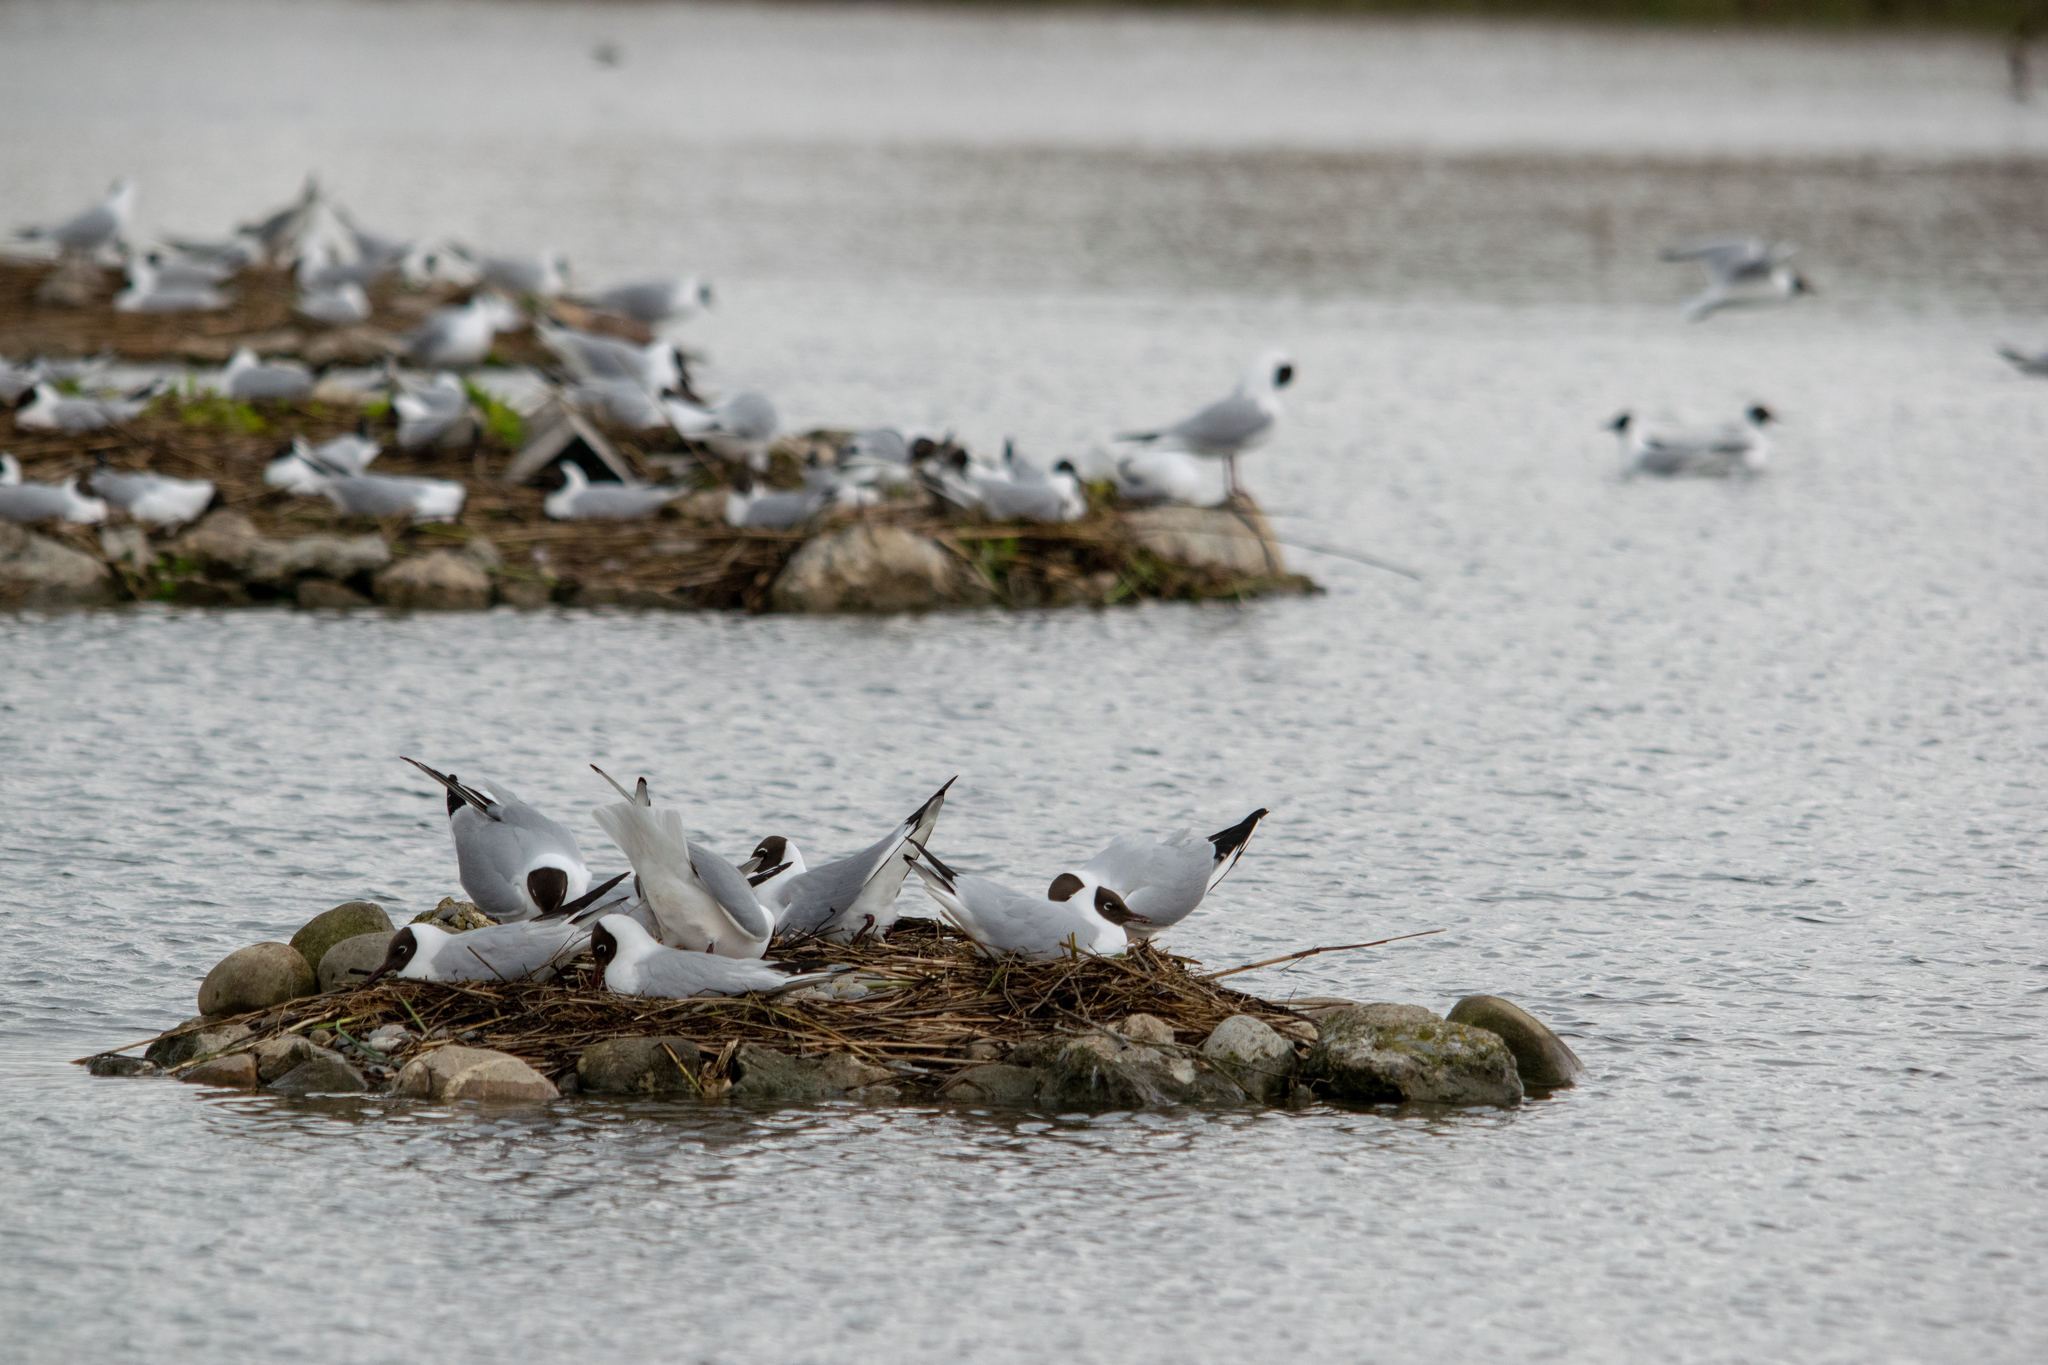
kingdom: Animalia
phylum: Chordata
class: Aves
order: Charadriiformes
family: Laridae
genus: Chroicocephalus
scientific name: Chroicocephalus ridibundus
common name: Black-headed gull
